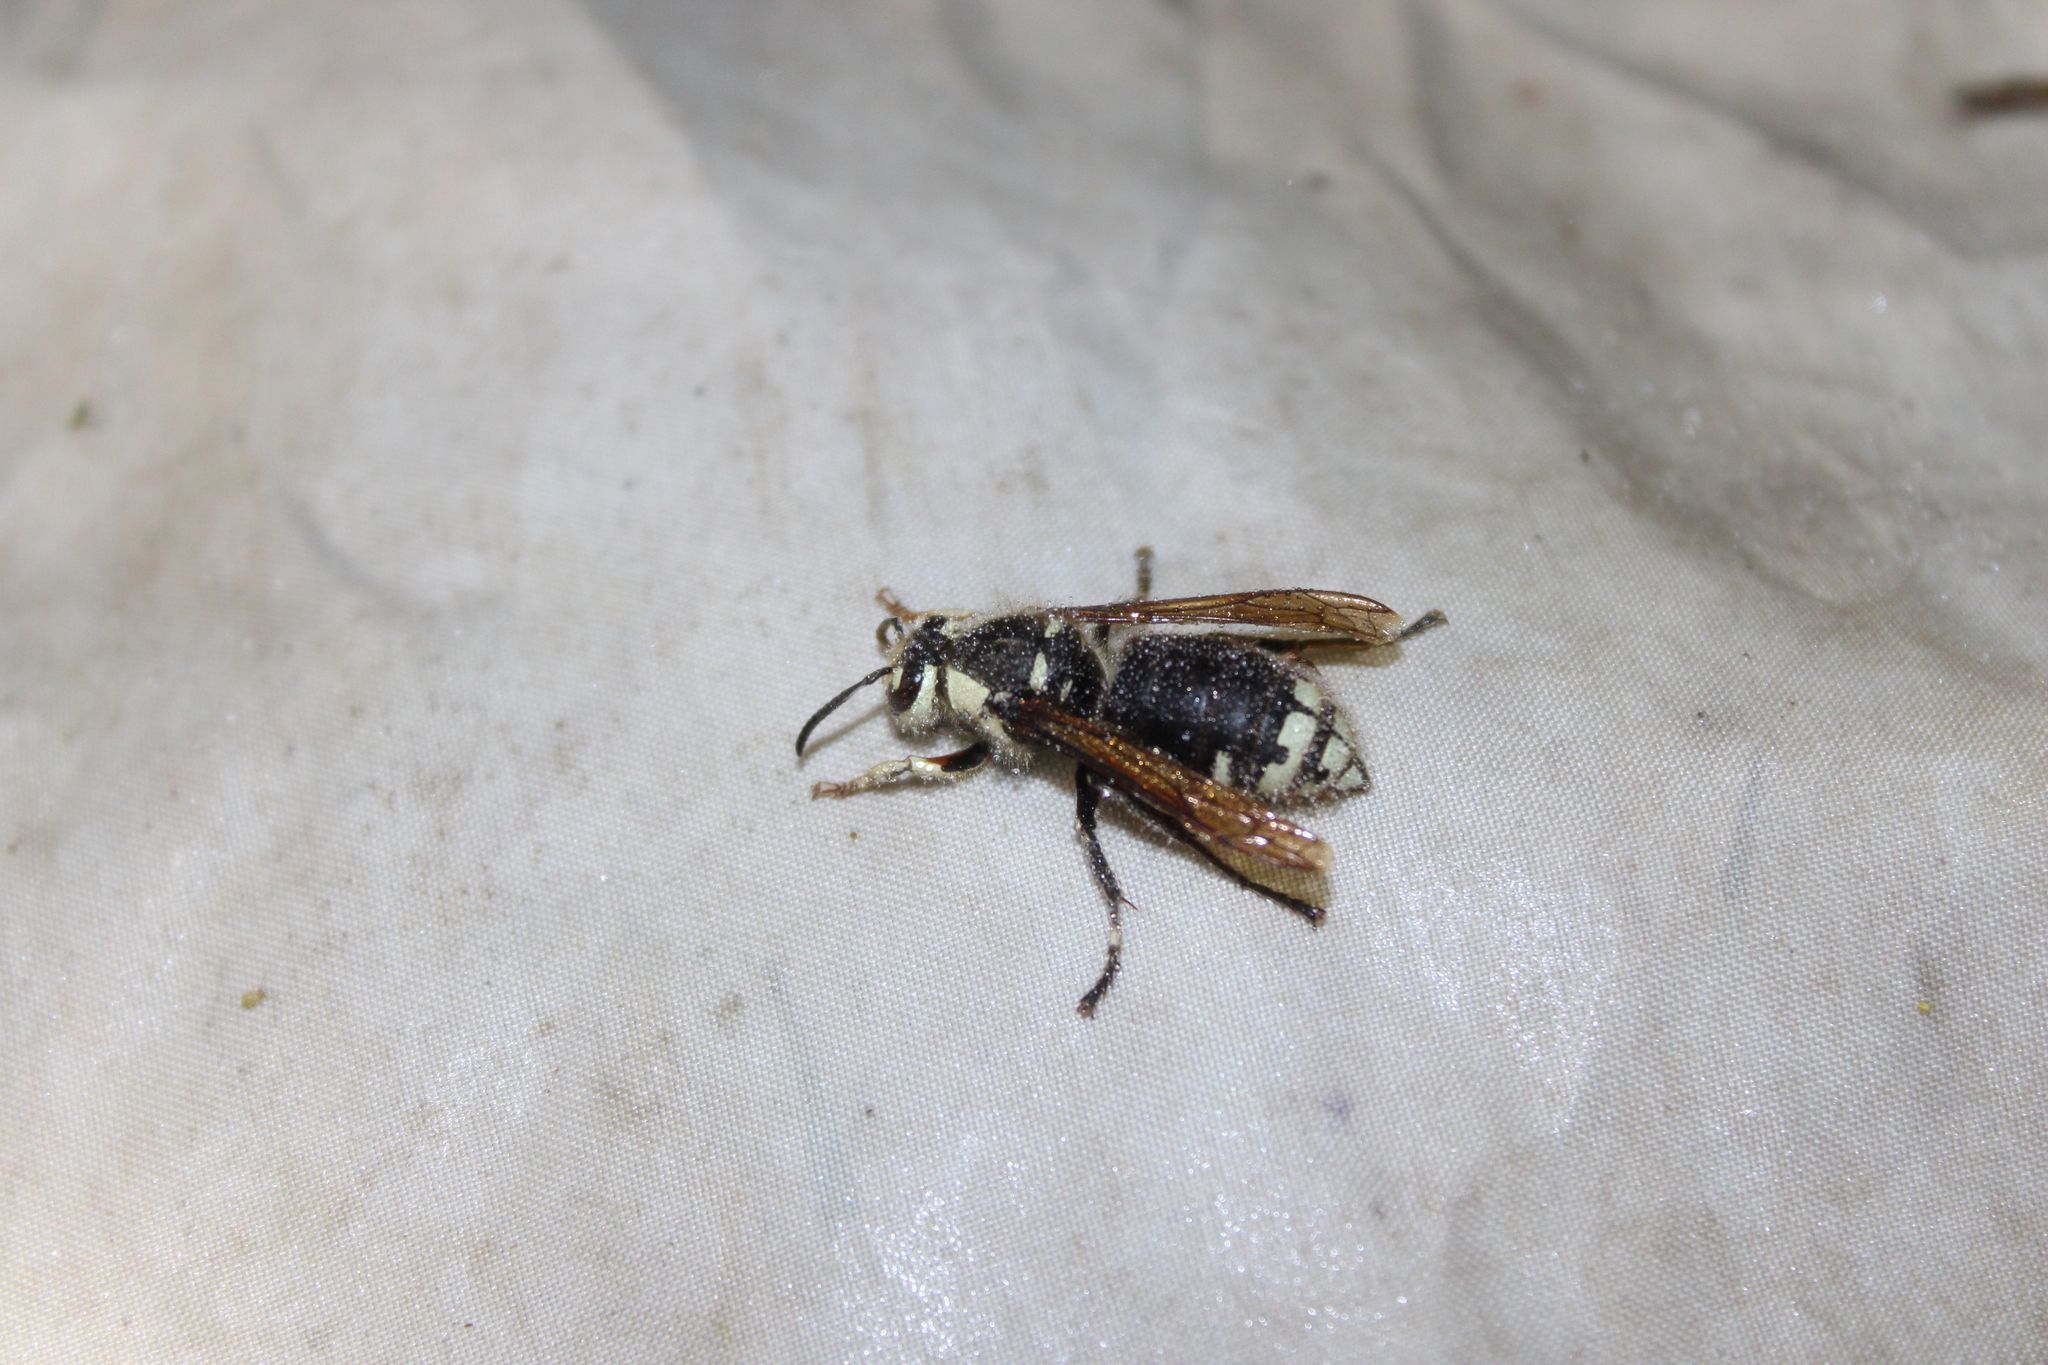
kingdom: Animalia
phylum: Arthropoda
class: Insecta
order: Hymenoptera
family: Vespidae
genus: Dolichovespula
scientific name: Dolichovespula maculata
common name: Bald-faced hornet
